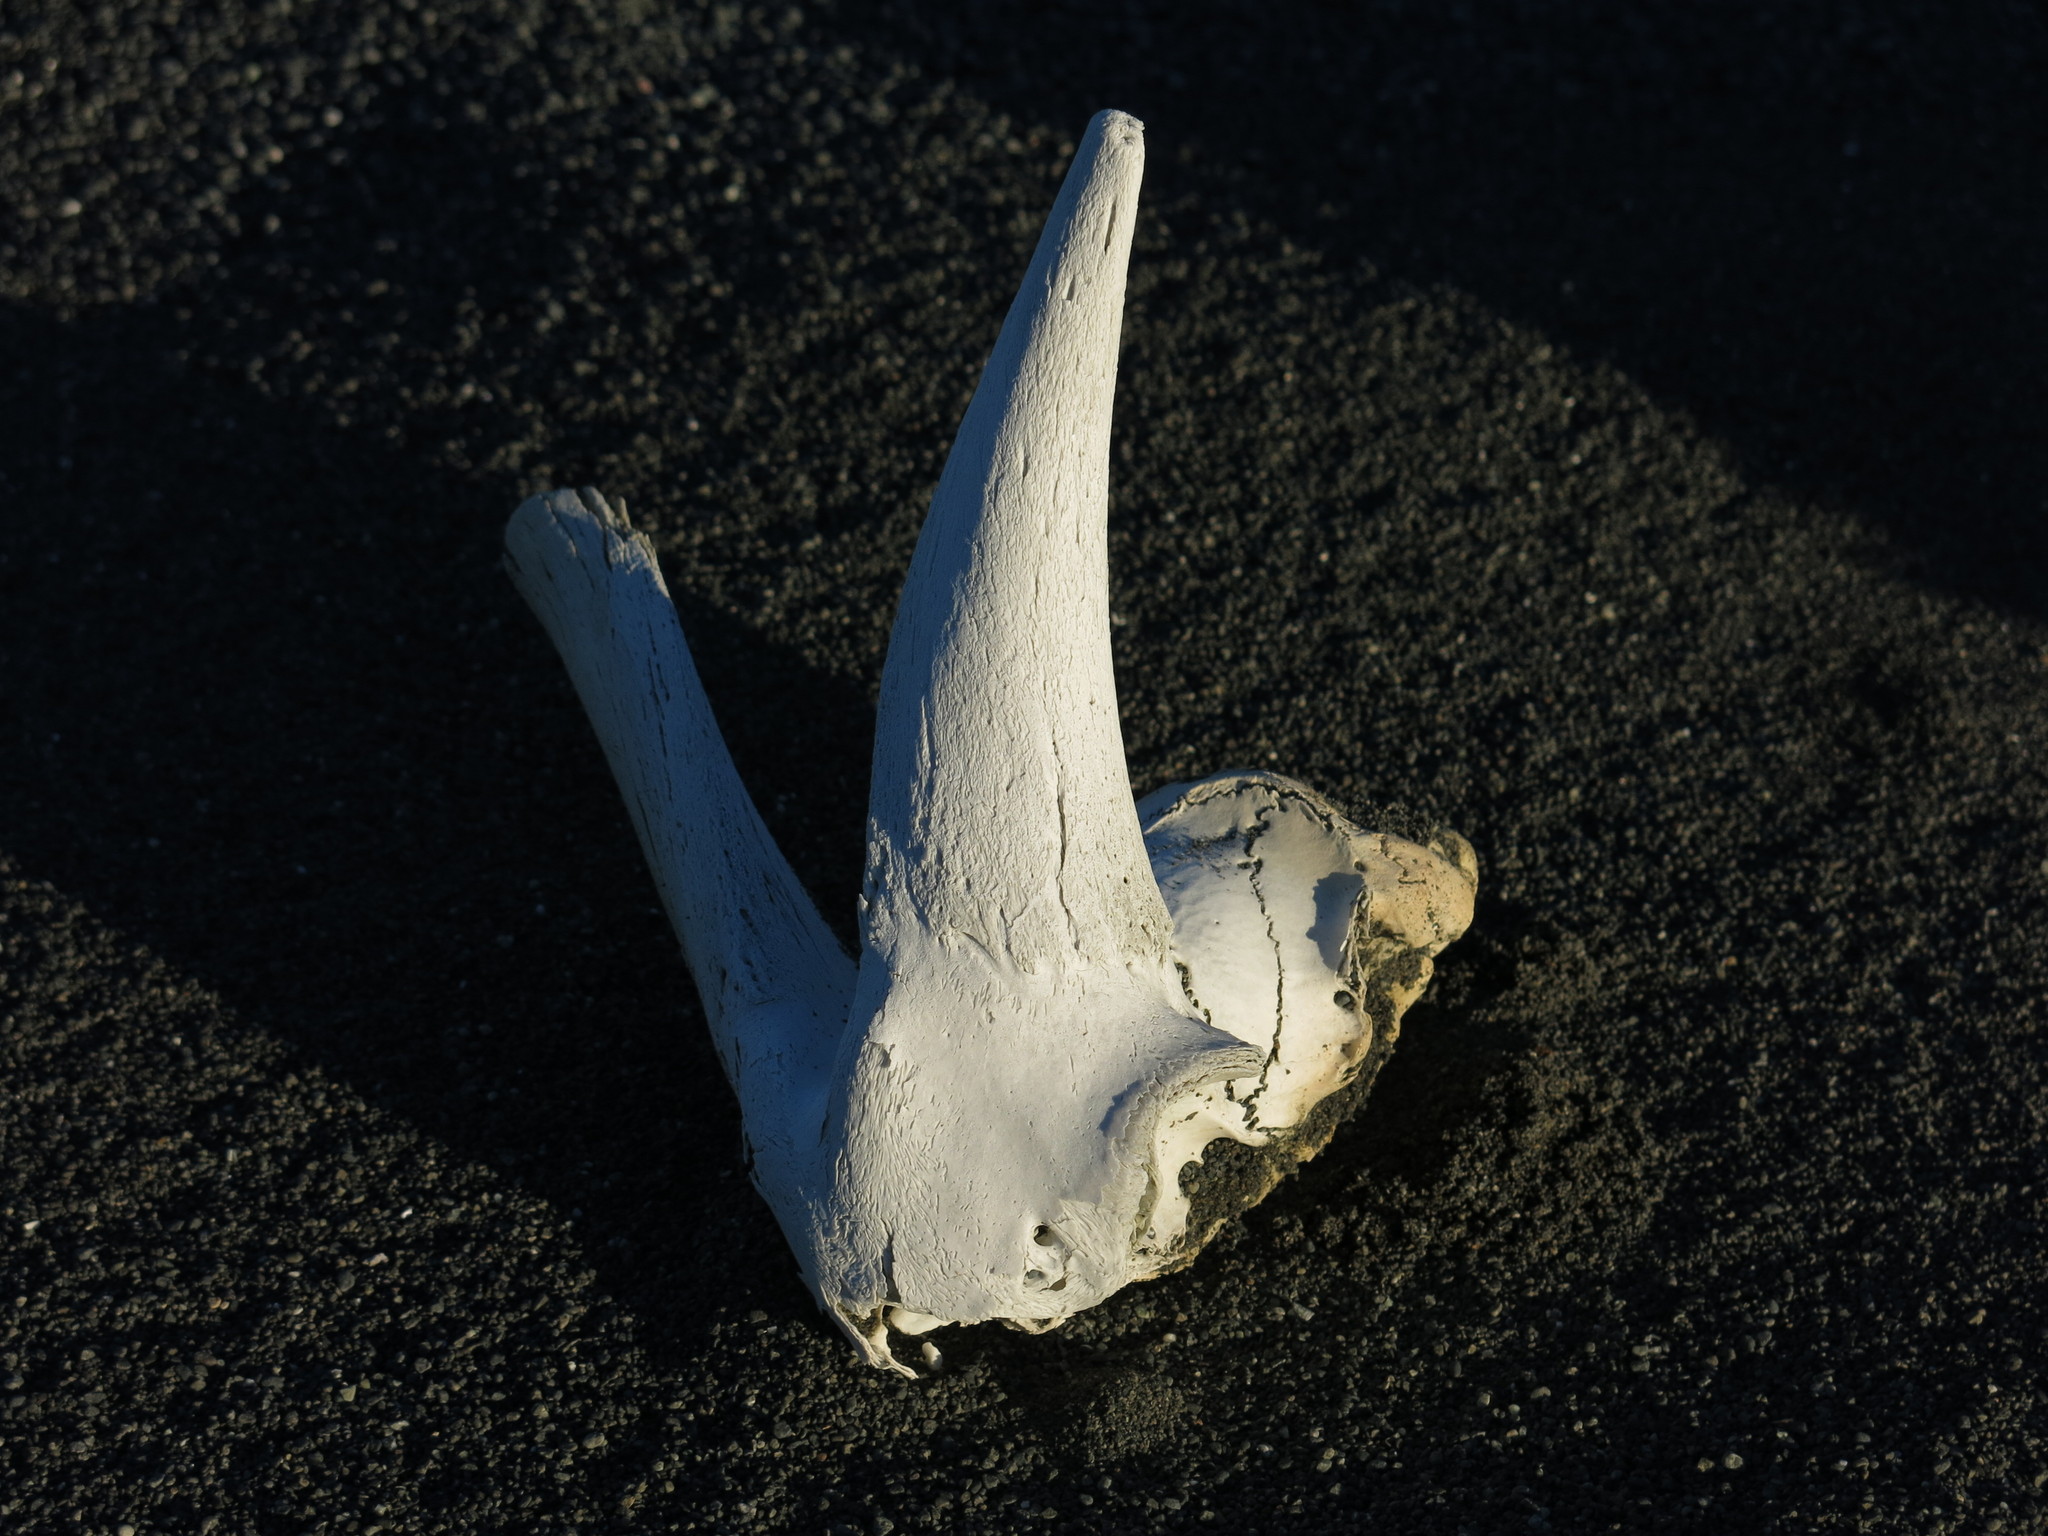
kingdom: Animalia
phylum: Chordata
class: Mammalia
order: Artiodactyla
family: Bovidae
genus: Capra
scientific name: Capra hircus
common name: Domestic goat
